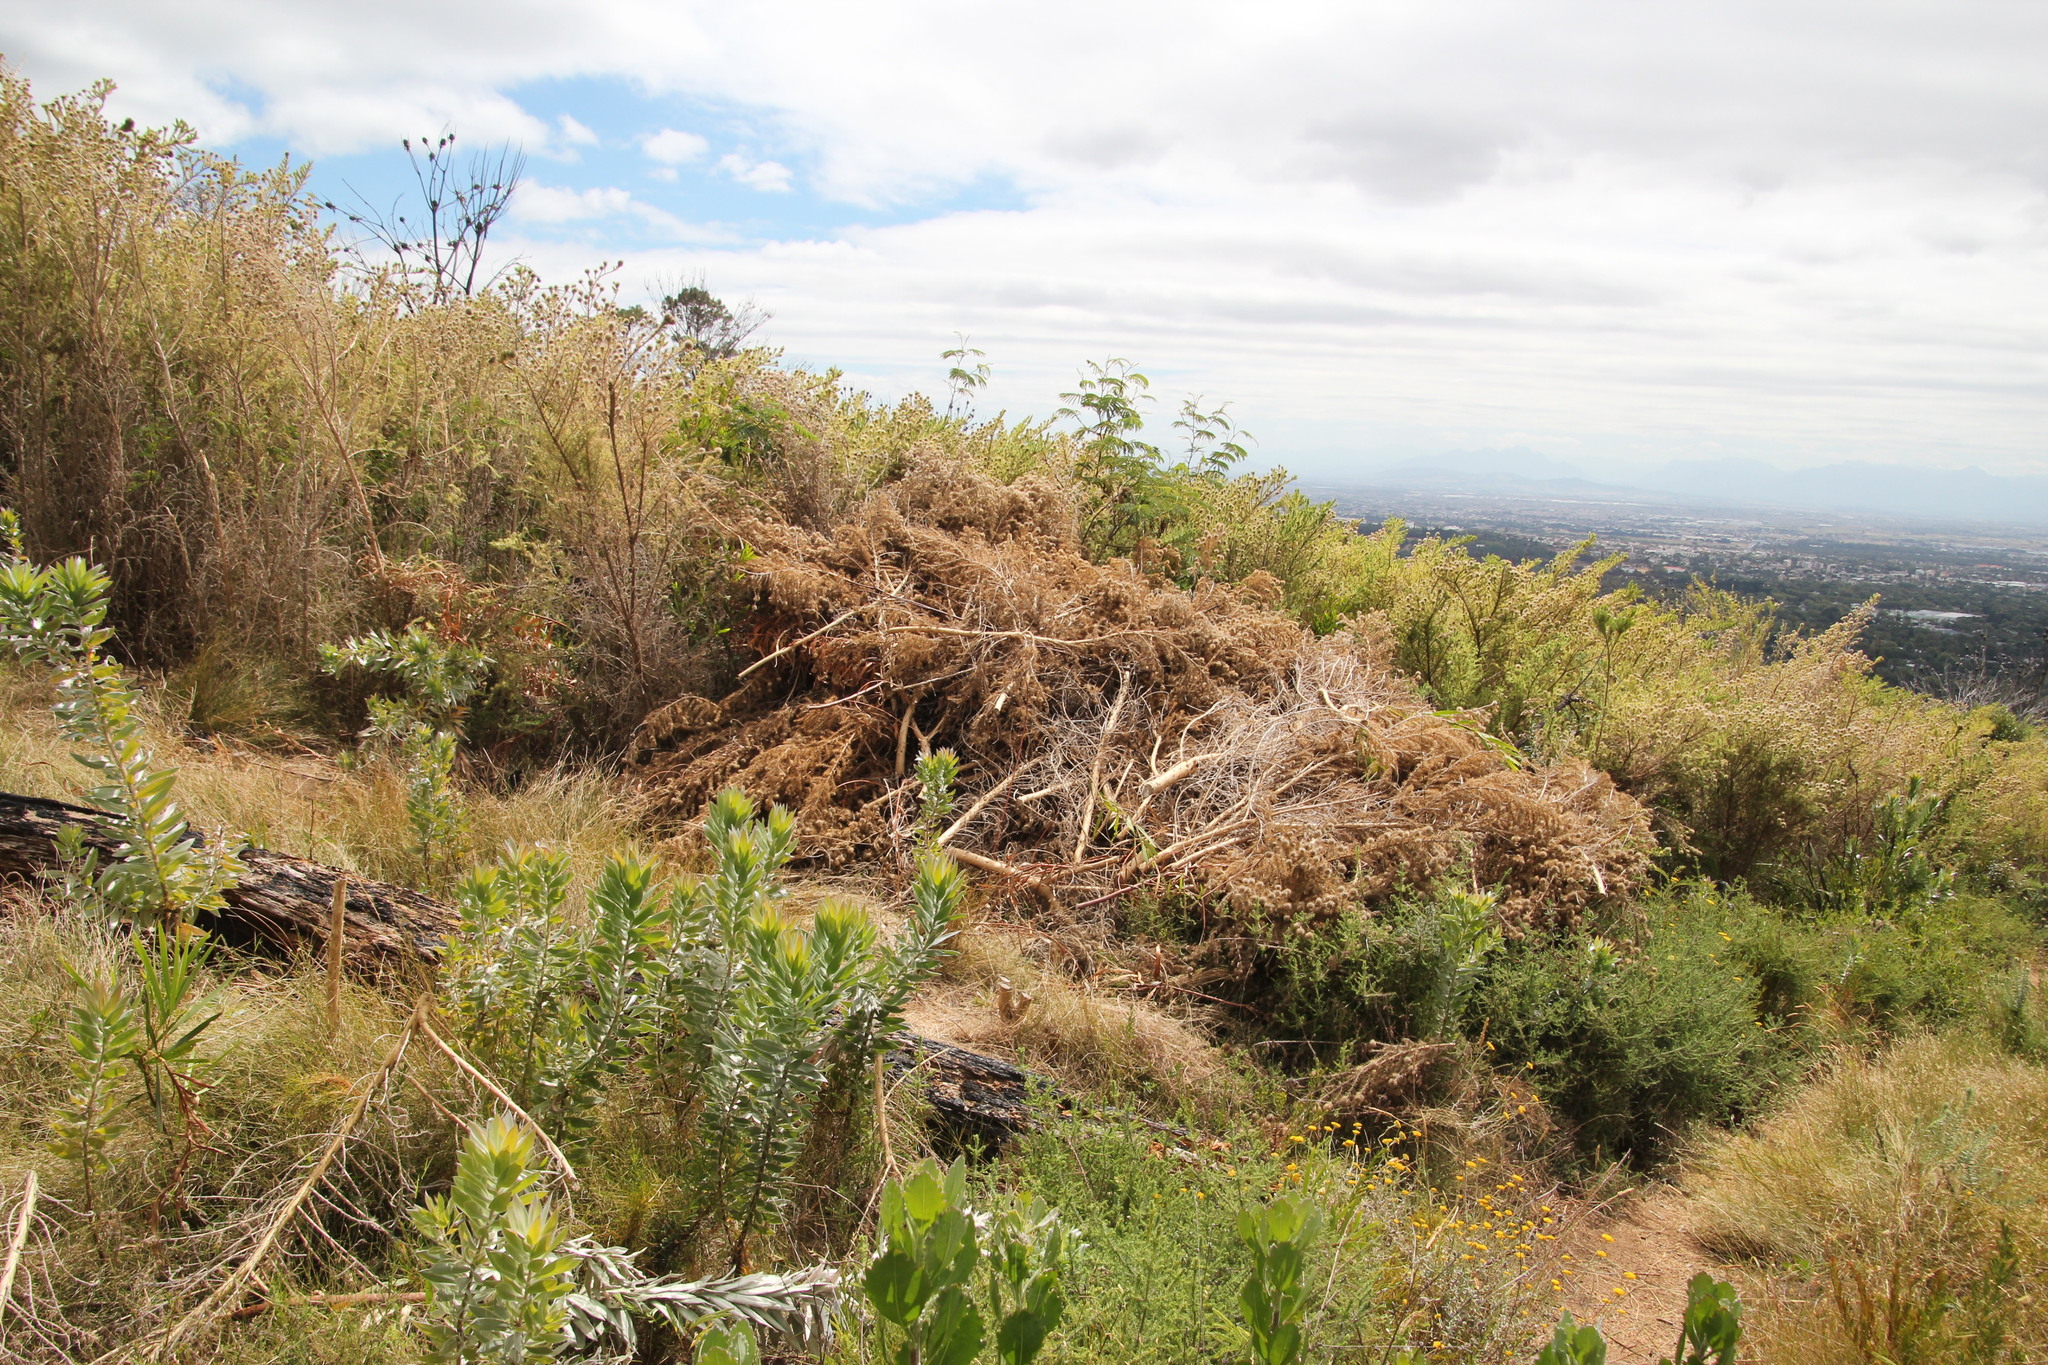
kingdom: Plantae
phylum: Tracheophyta
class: Magnoliopsida
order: Fabales
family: Fabaceae
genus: Aspalathus
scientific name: Aspalathus chenopoda
